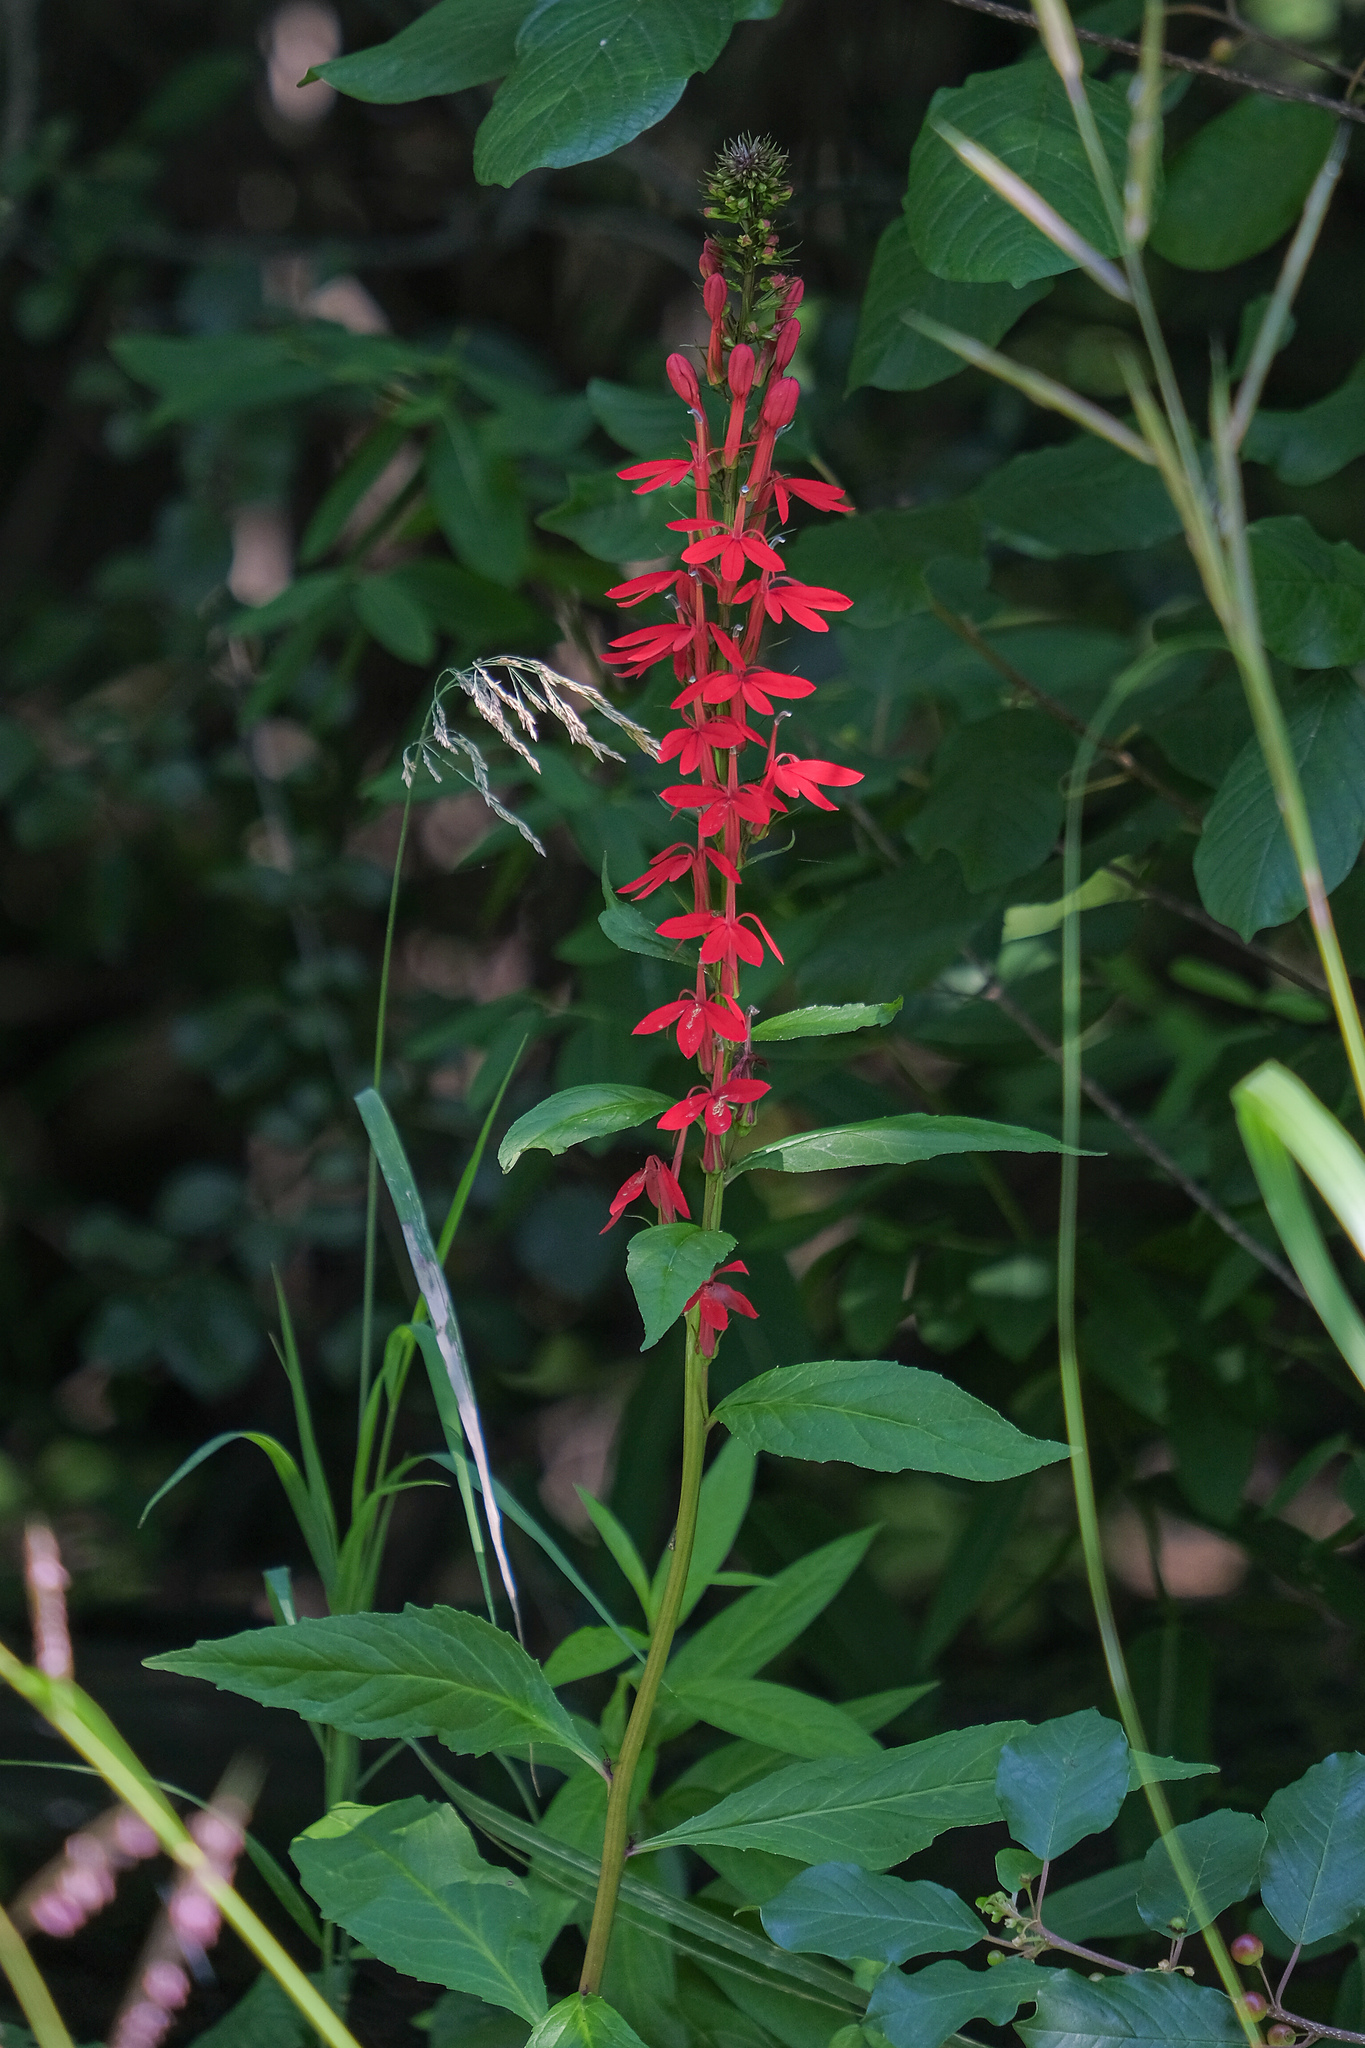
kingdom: Plantae
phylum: Tracheophyta
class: Magnoliopsida
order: Asterales
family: Campanulaceae
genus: Lobelia
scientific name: Lobelia cardinalis
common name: Cardinal flower
